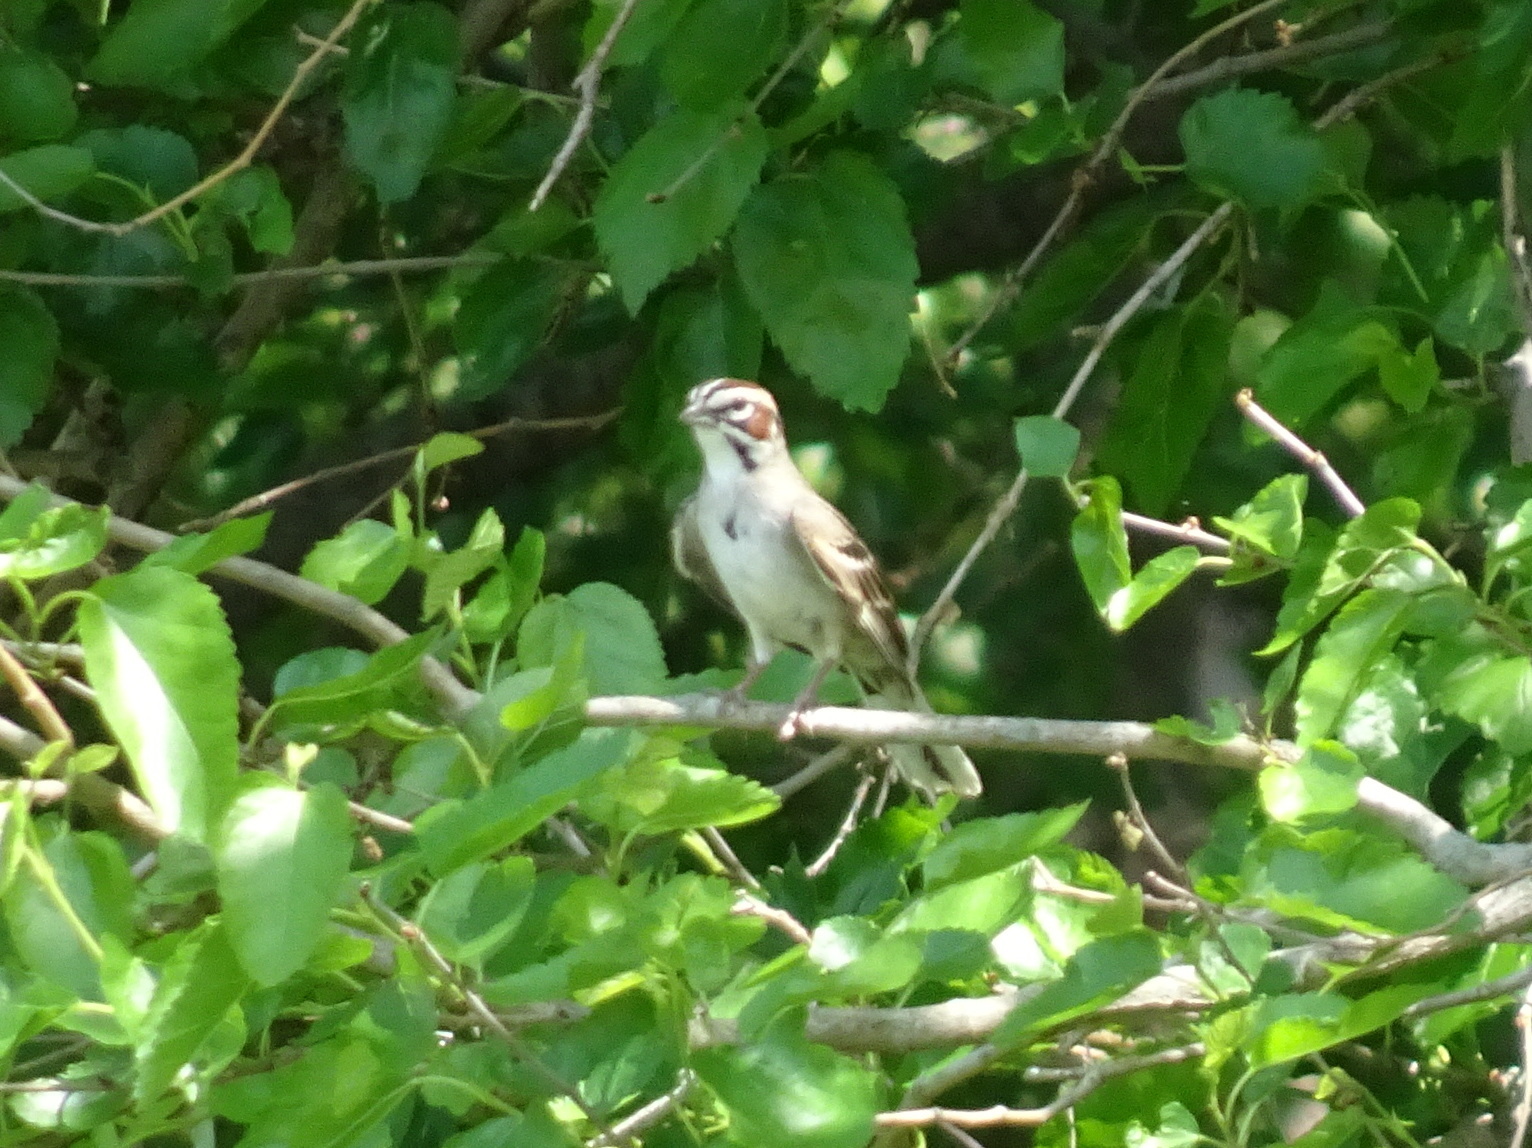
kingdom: Animalia
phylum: Chordata
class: Aves
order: Passeriformes
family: Passerellidae
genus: Chondestes
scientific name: Chondestes grammacus
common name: Lark sparrow
